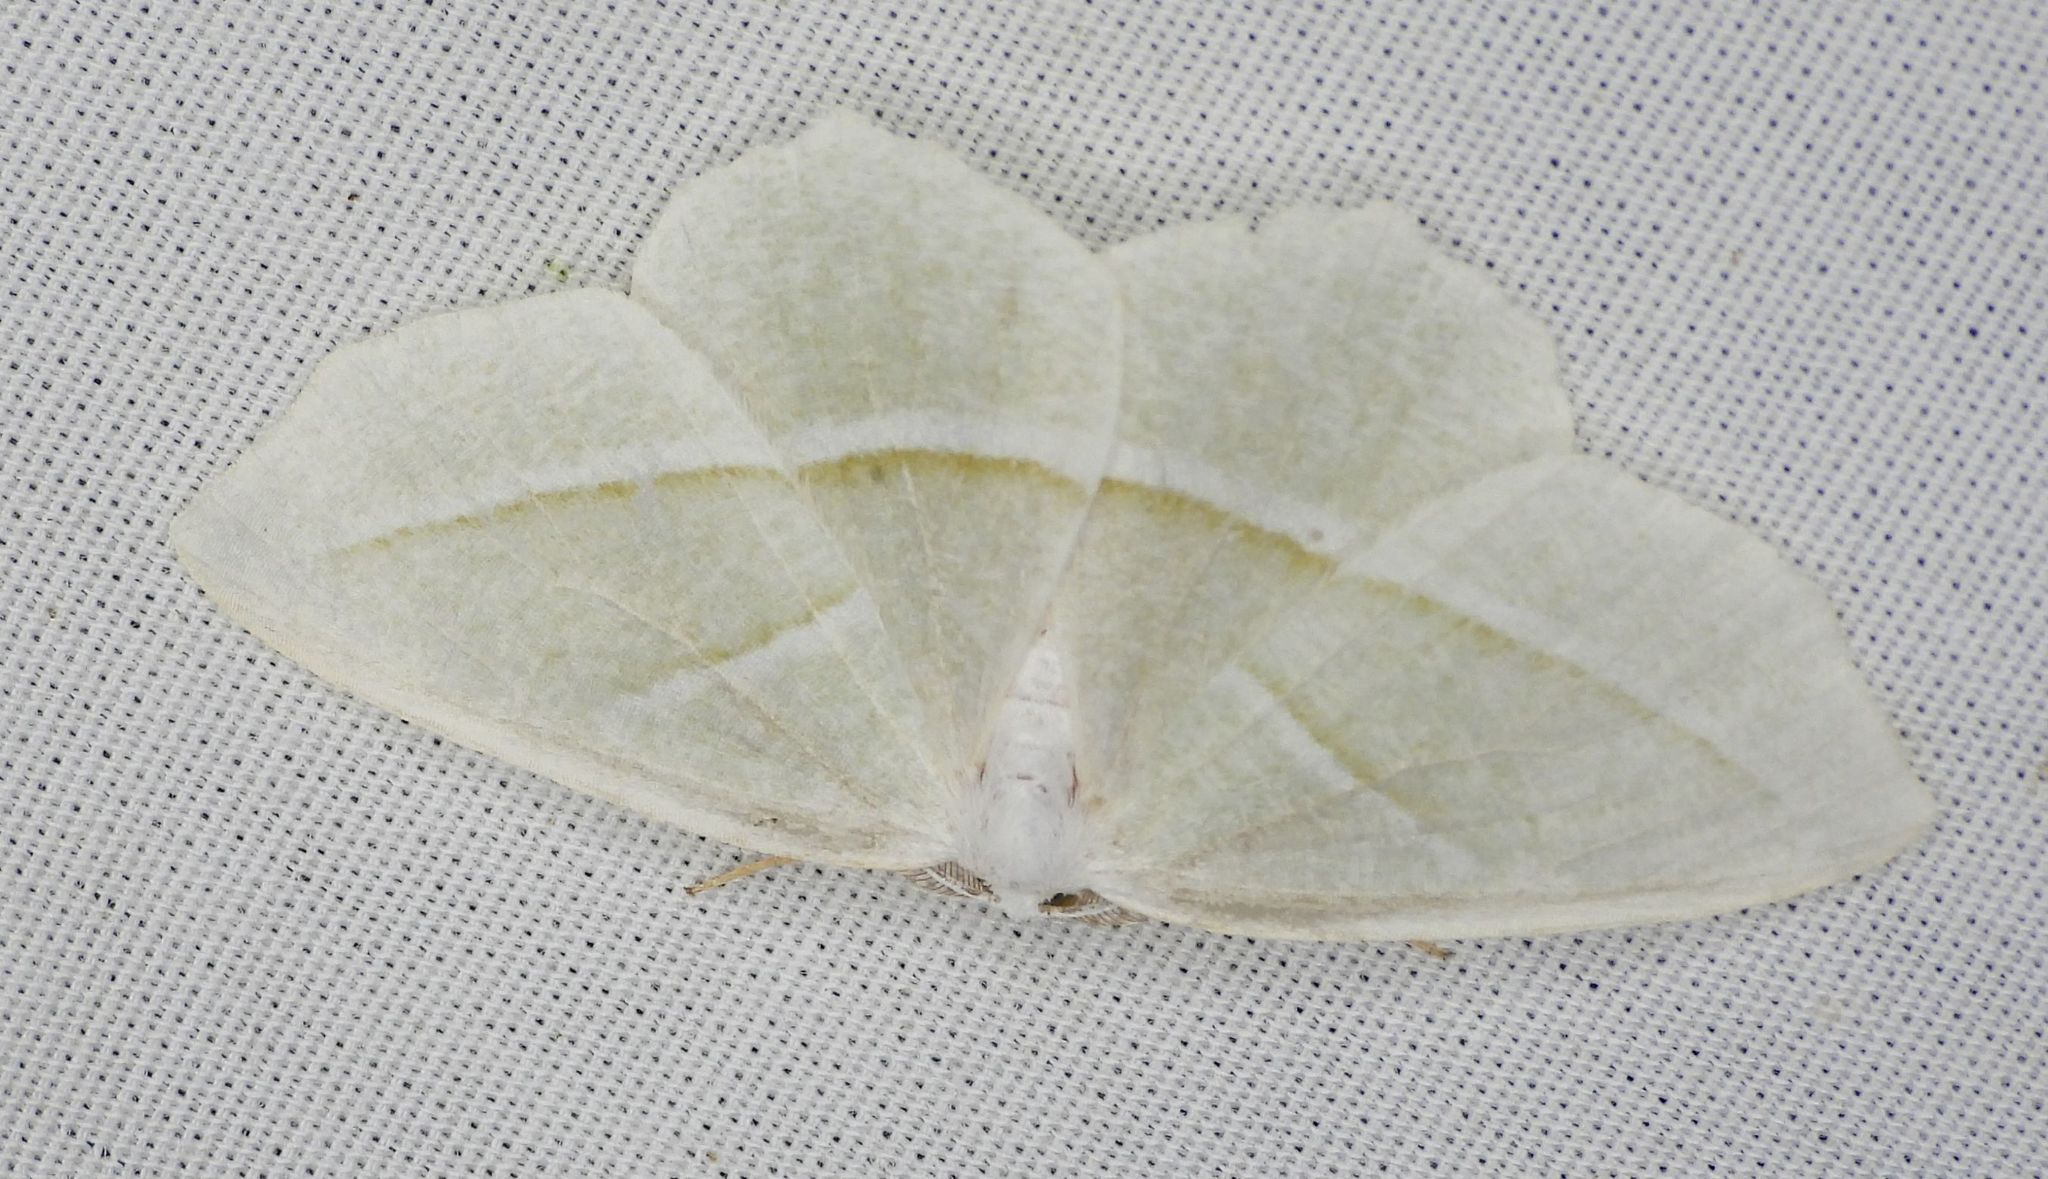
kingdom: Animalia
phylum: Arthropoda
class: Insecta
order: Lepidoptera
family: Geometridae
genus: Campaea
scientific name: Campaea perlata
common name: Fringed looper
